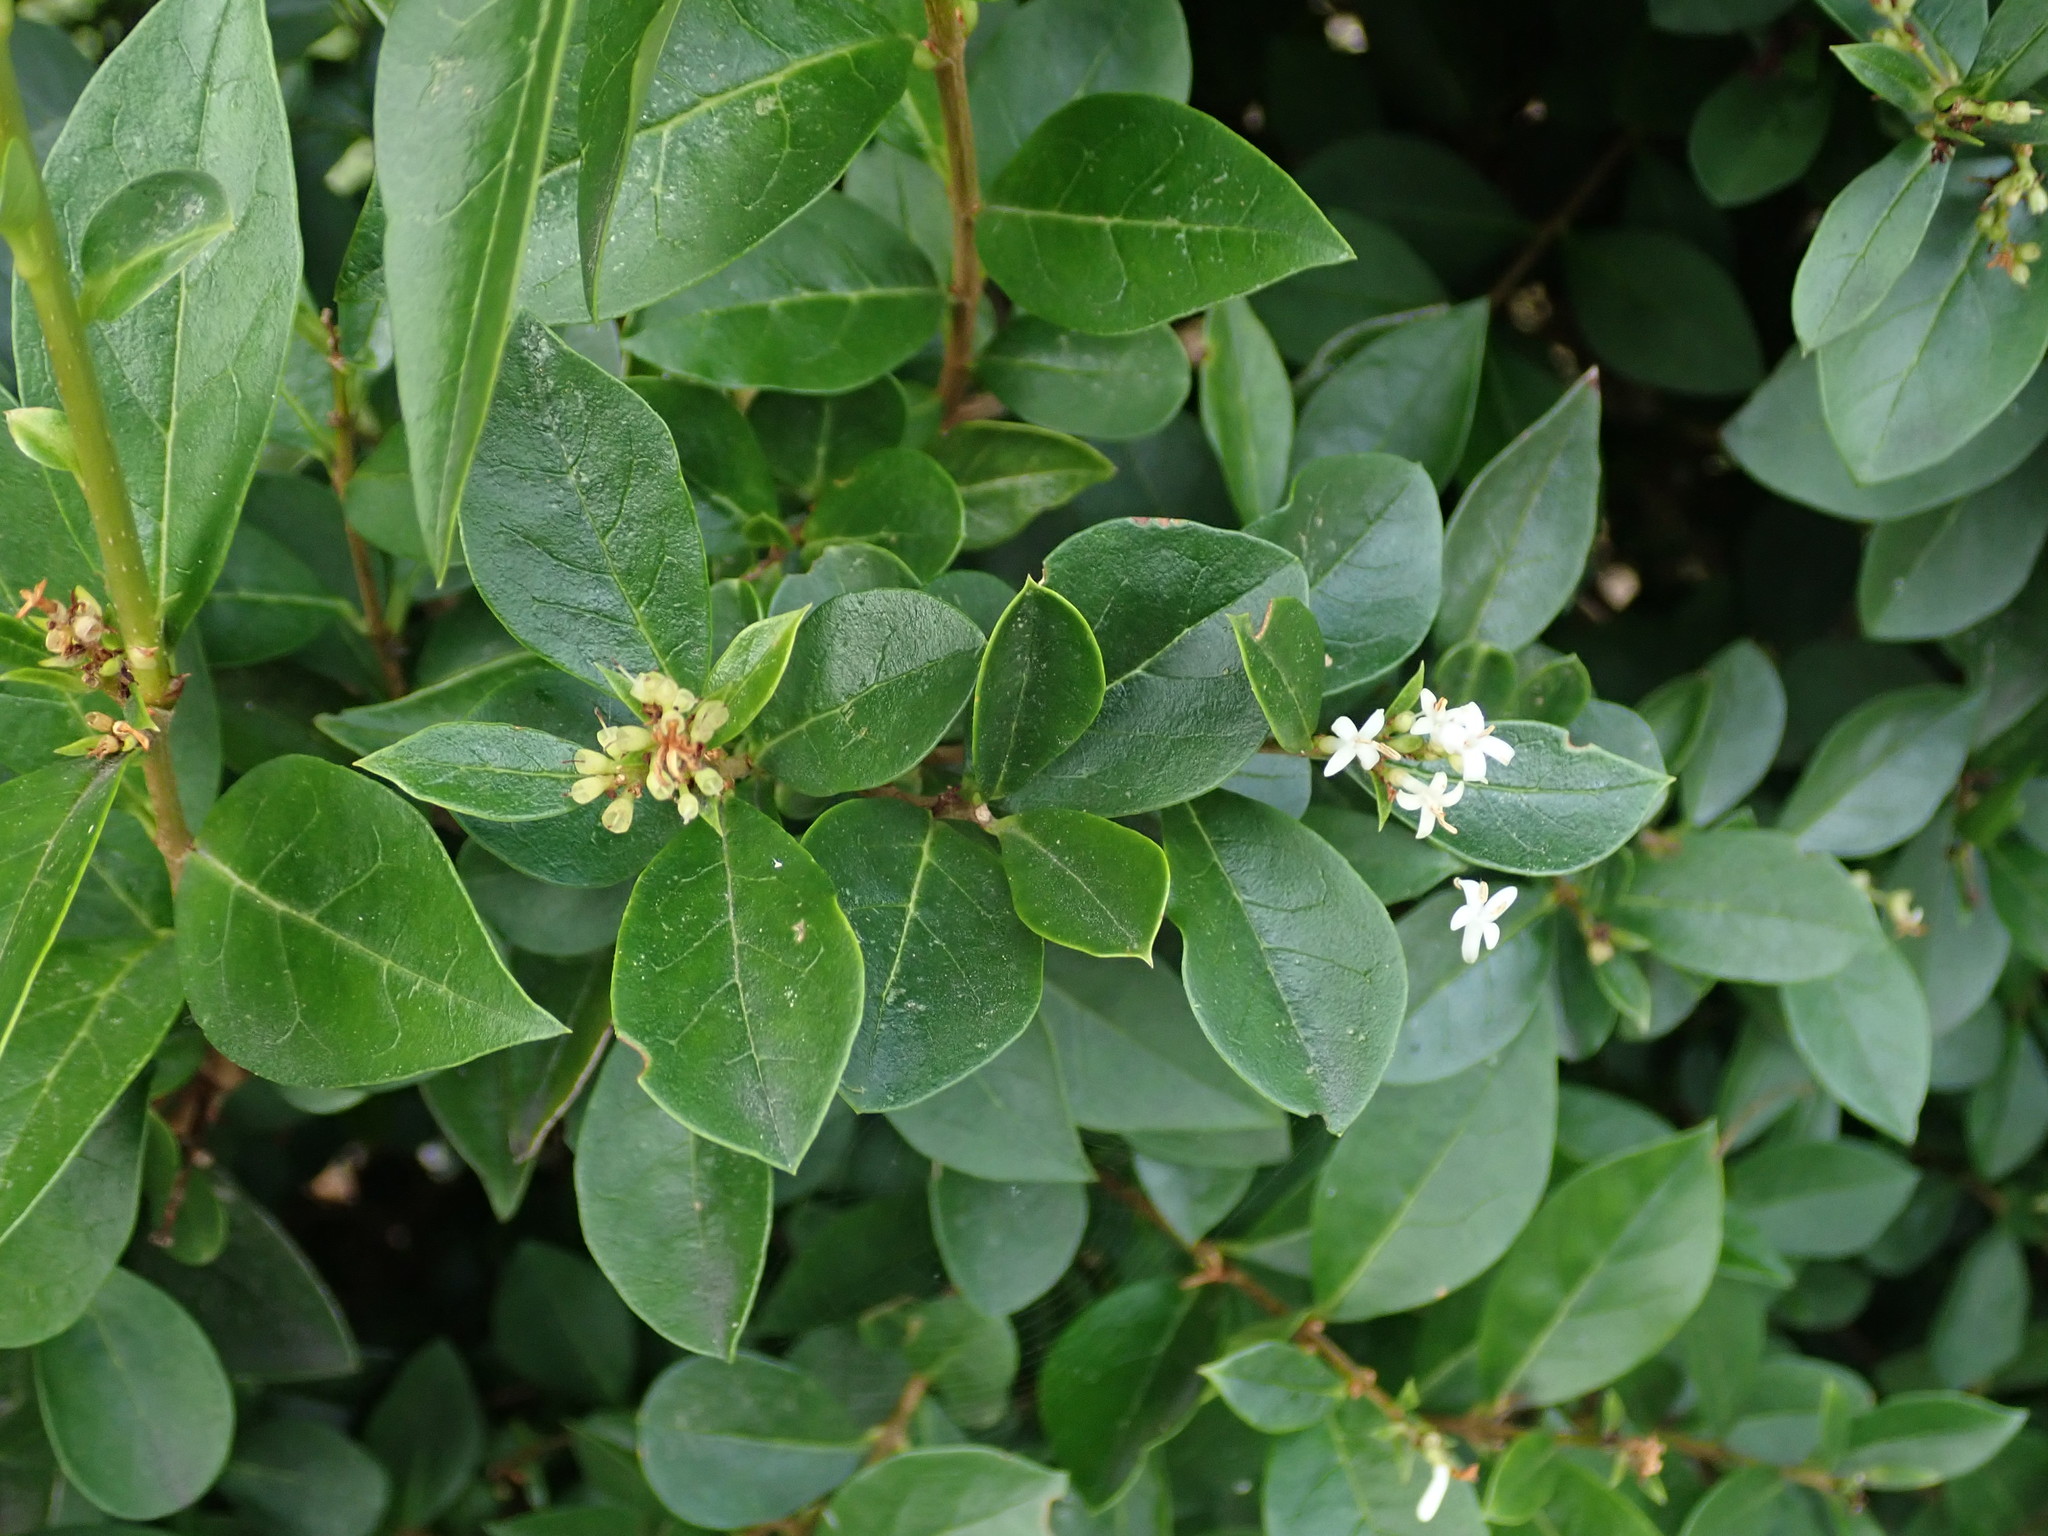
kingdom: Plantae
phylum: Tracheophyta
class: Magnoliopsida
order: Lamiales
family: Oleaceae
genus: Ligustrum
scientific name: Ligustrum ovalifolium
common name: California privet
